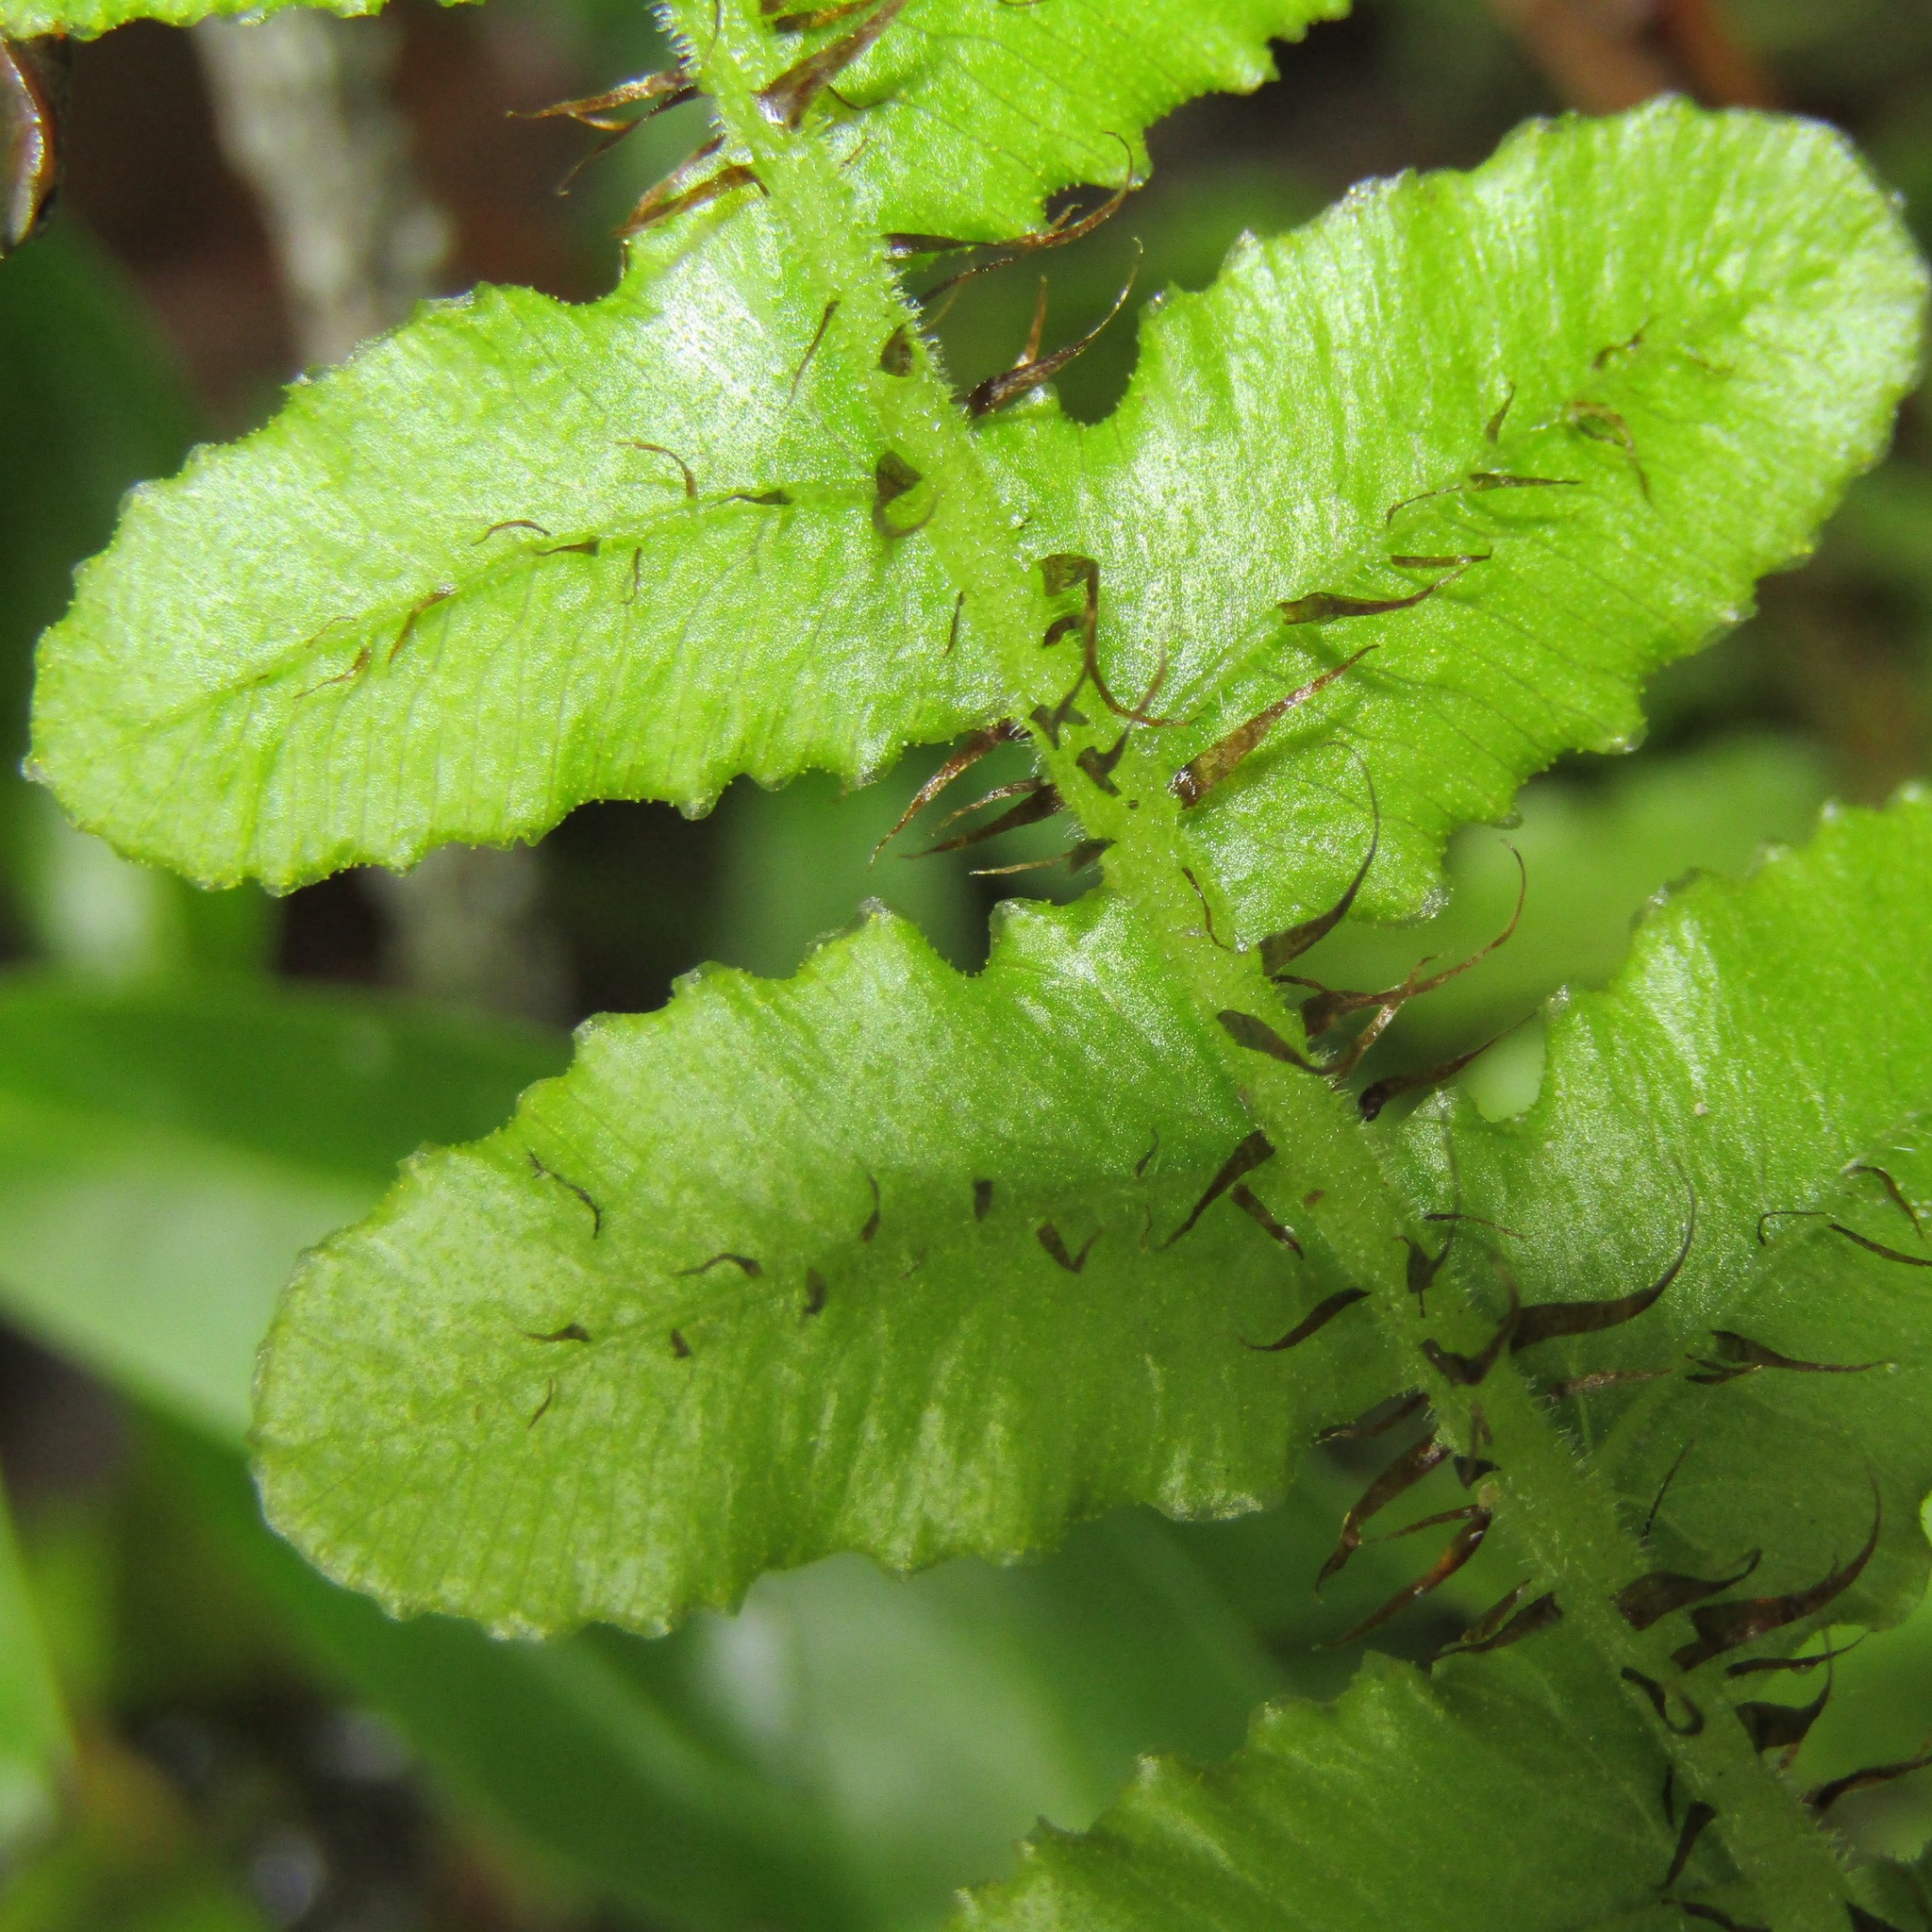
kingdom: Plantae
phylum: Tracheophyta
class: Polypodiopsida
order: Polypodiales
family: Blechnaceae
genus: Cranfillia
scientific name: Cranfillia fluviatilis
